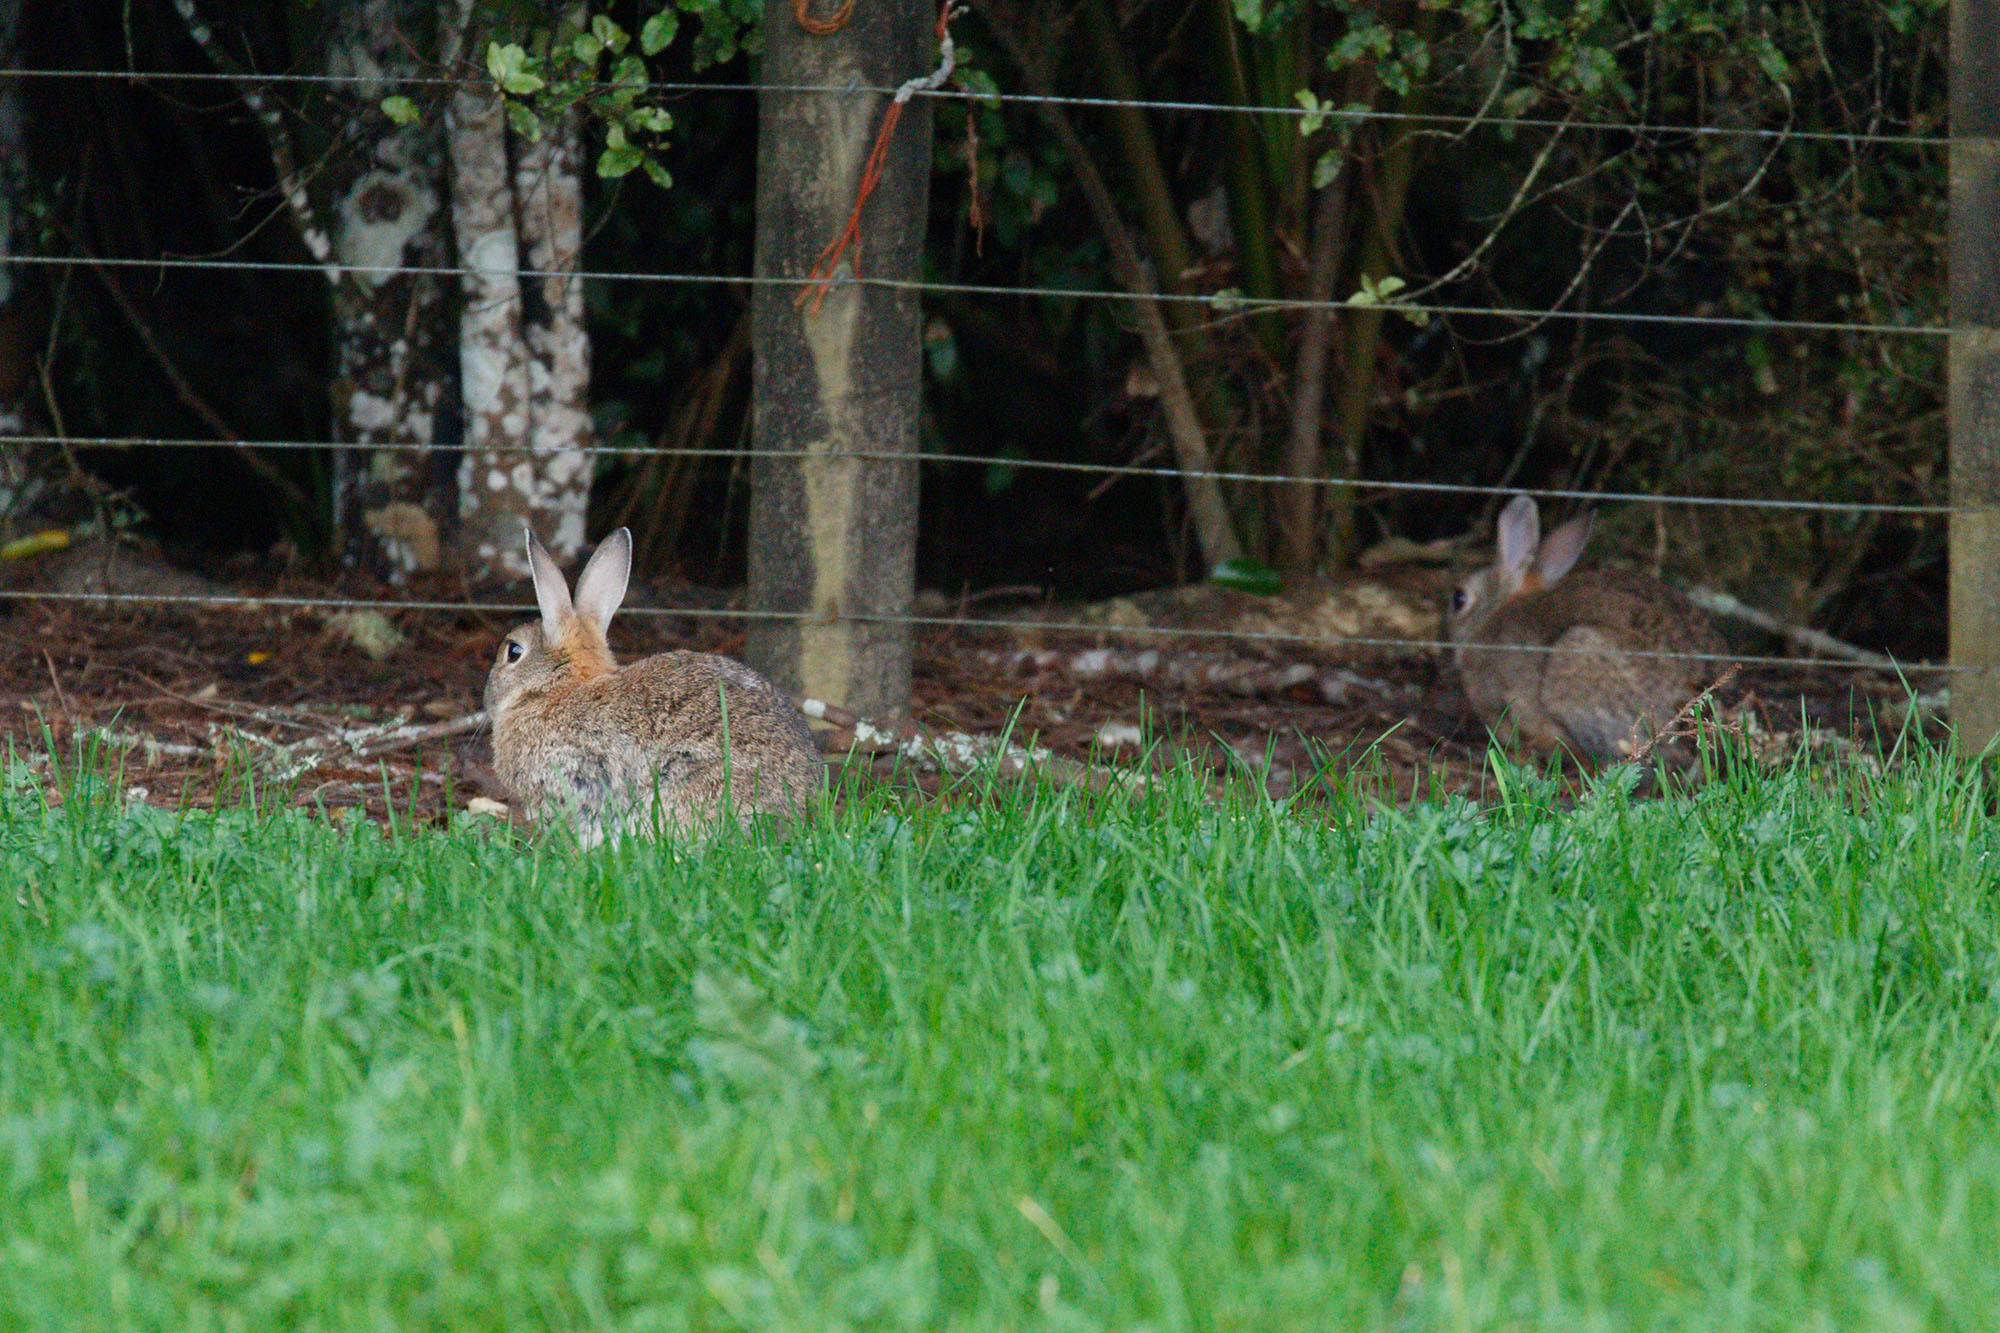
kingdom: Animalia
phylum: Chordata
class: Mammalia
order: Lagomorpha
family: Leporidae
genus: Oryctolagus
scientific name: Oryctolagus cuniculus
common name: European rabbit
